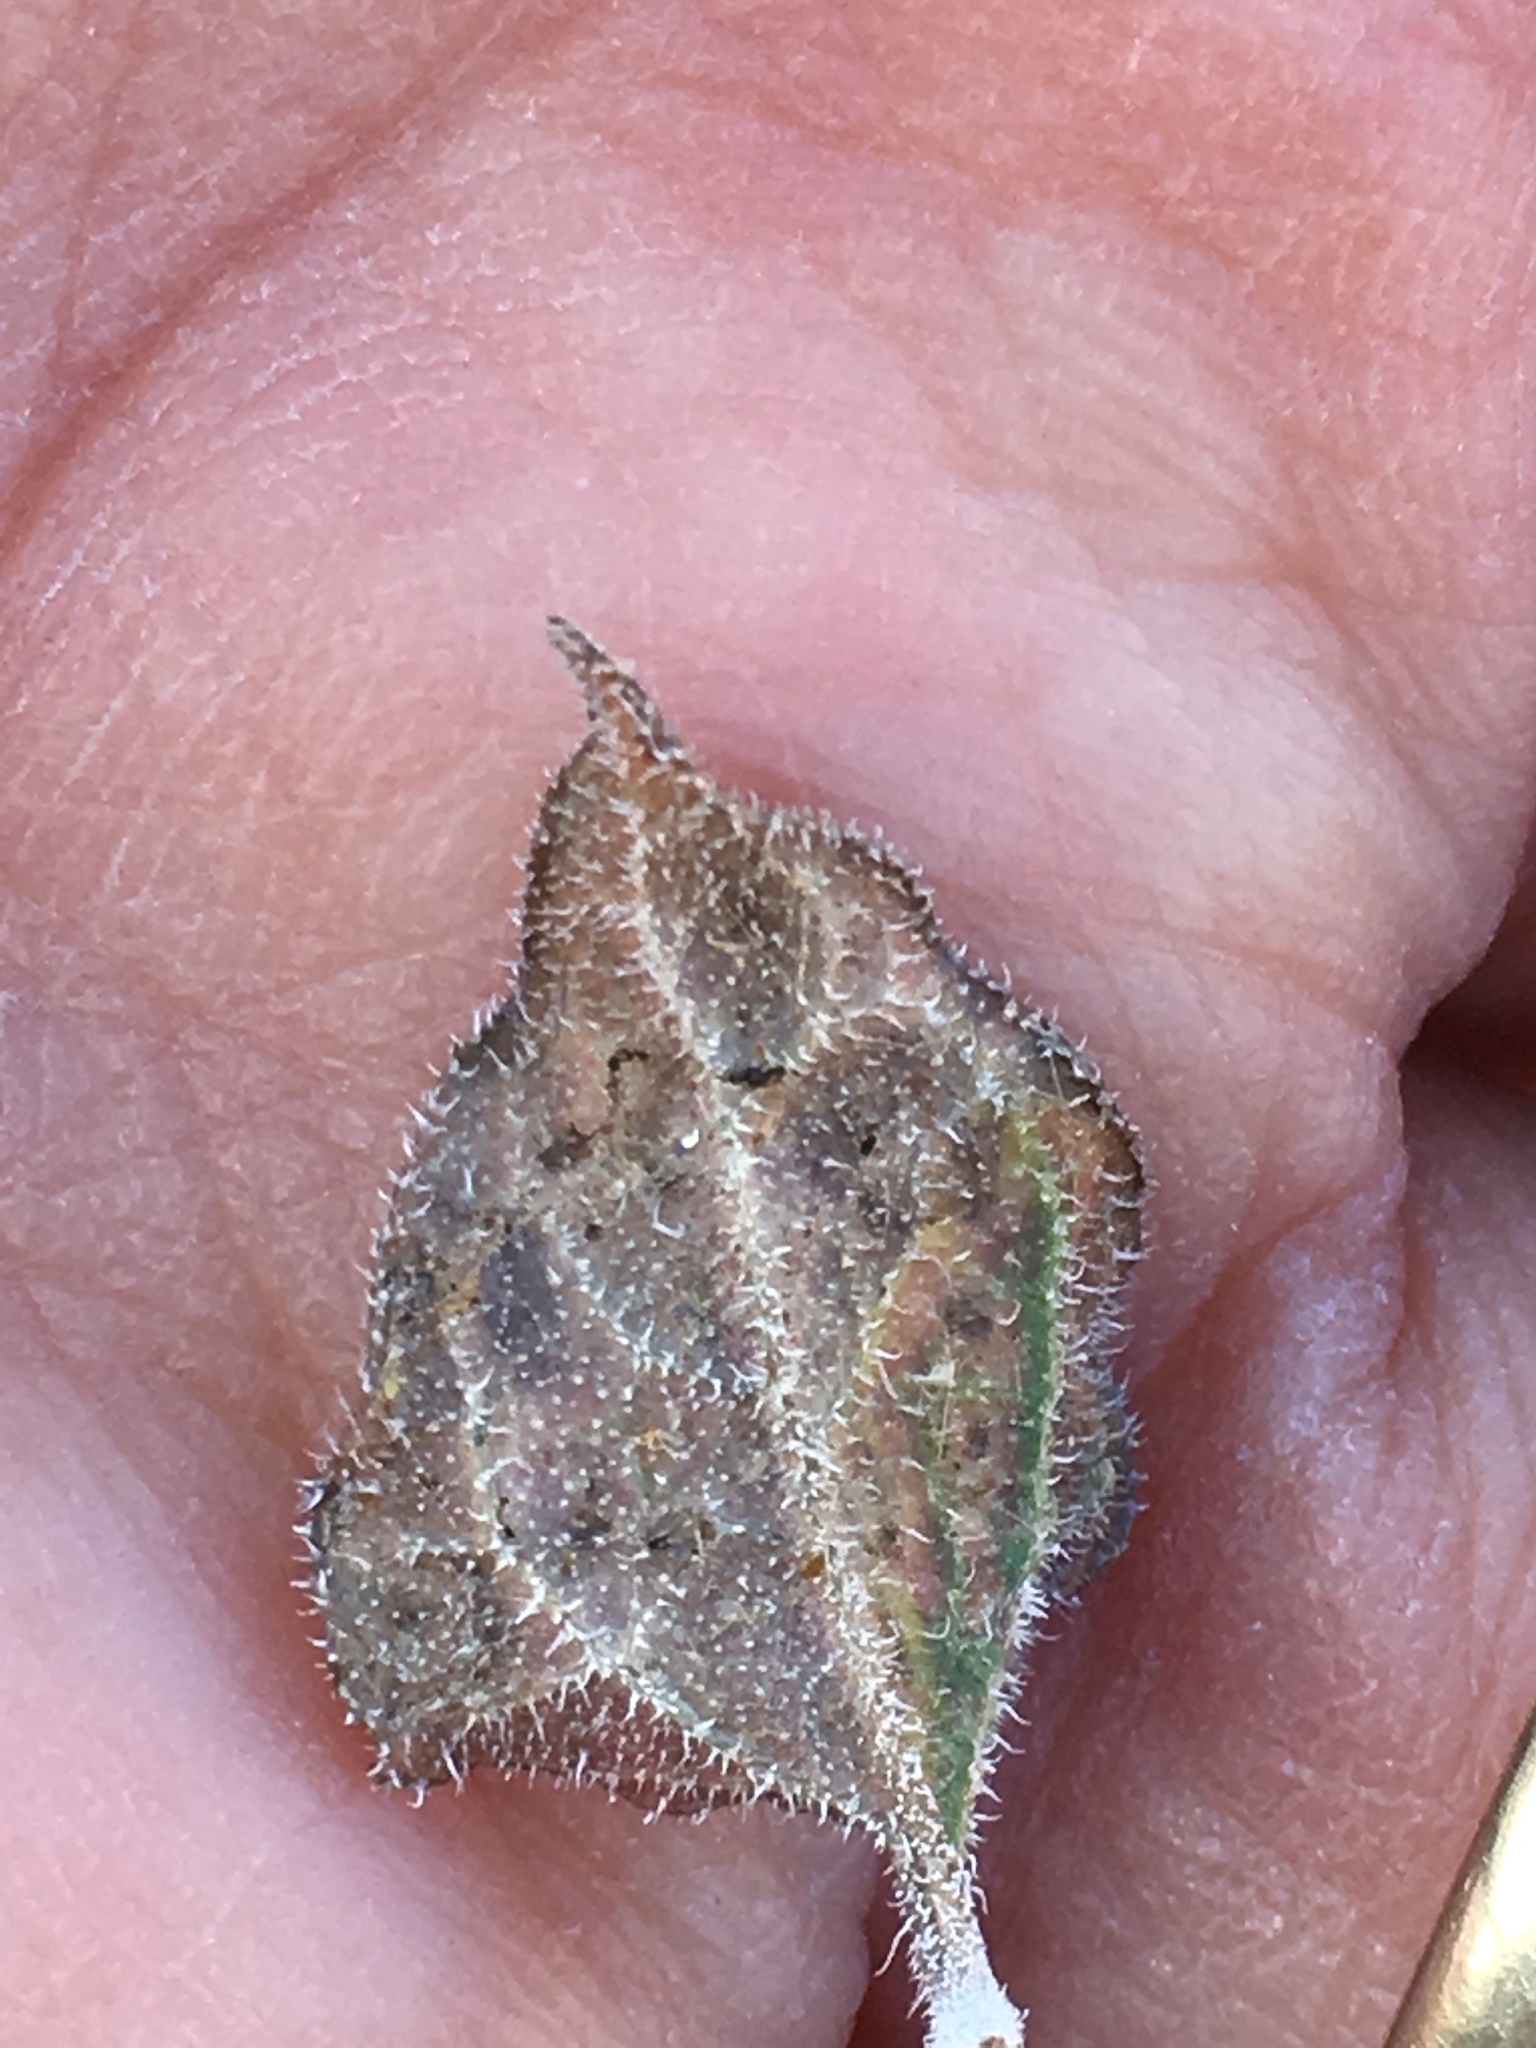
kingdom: Plantae
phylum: Tracheophyta
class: Magnoliopsida
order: Asterales
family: Asteraceae
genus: Bahiopsis
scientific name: Bahiopsis parishii
